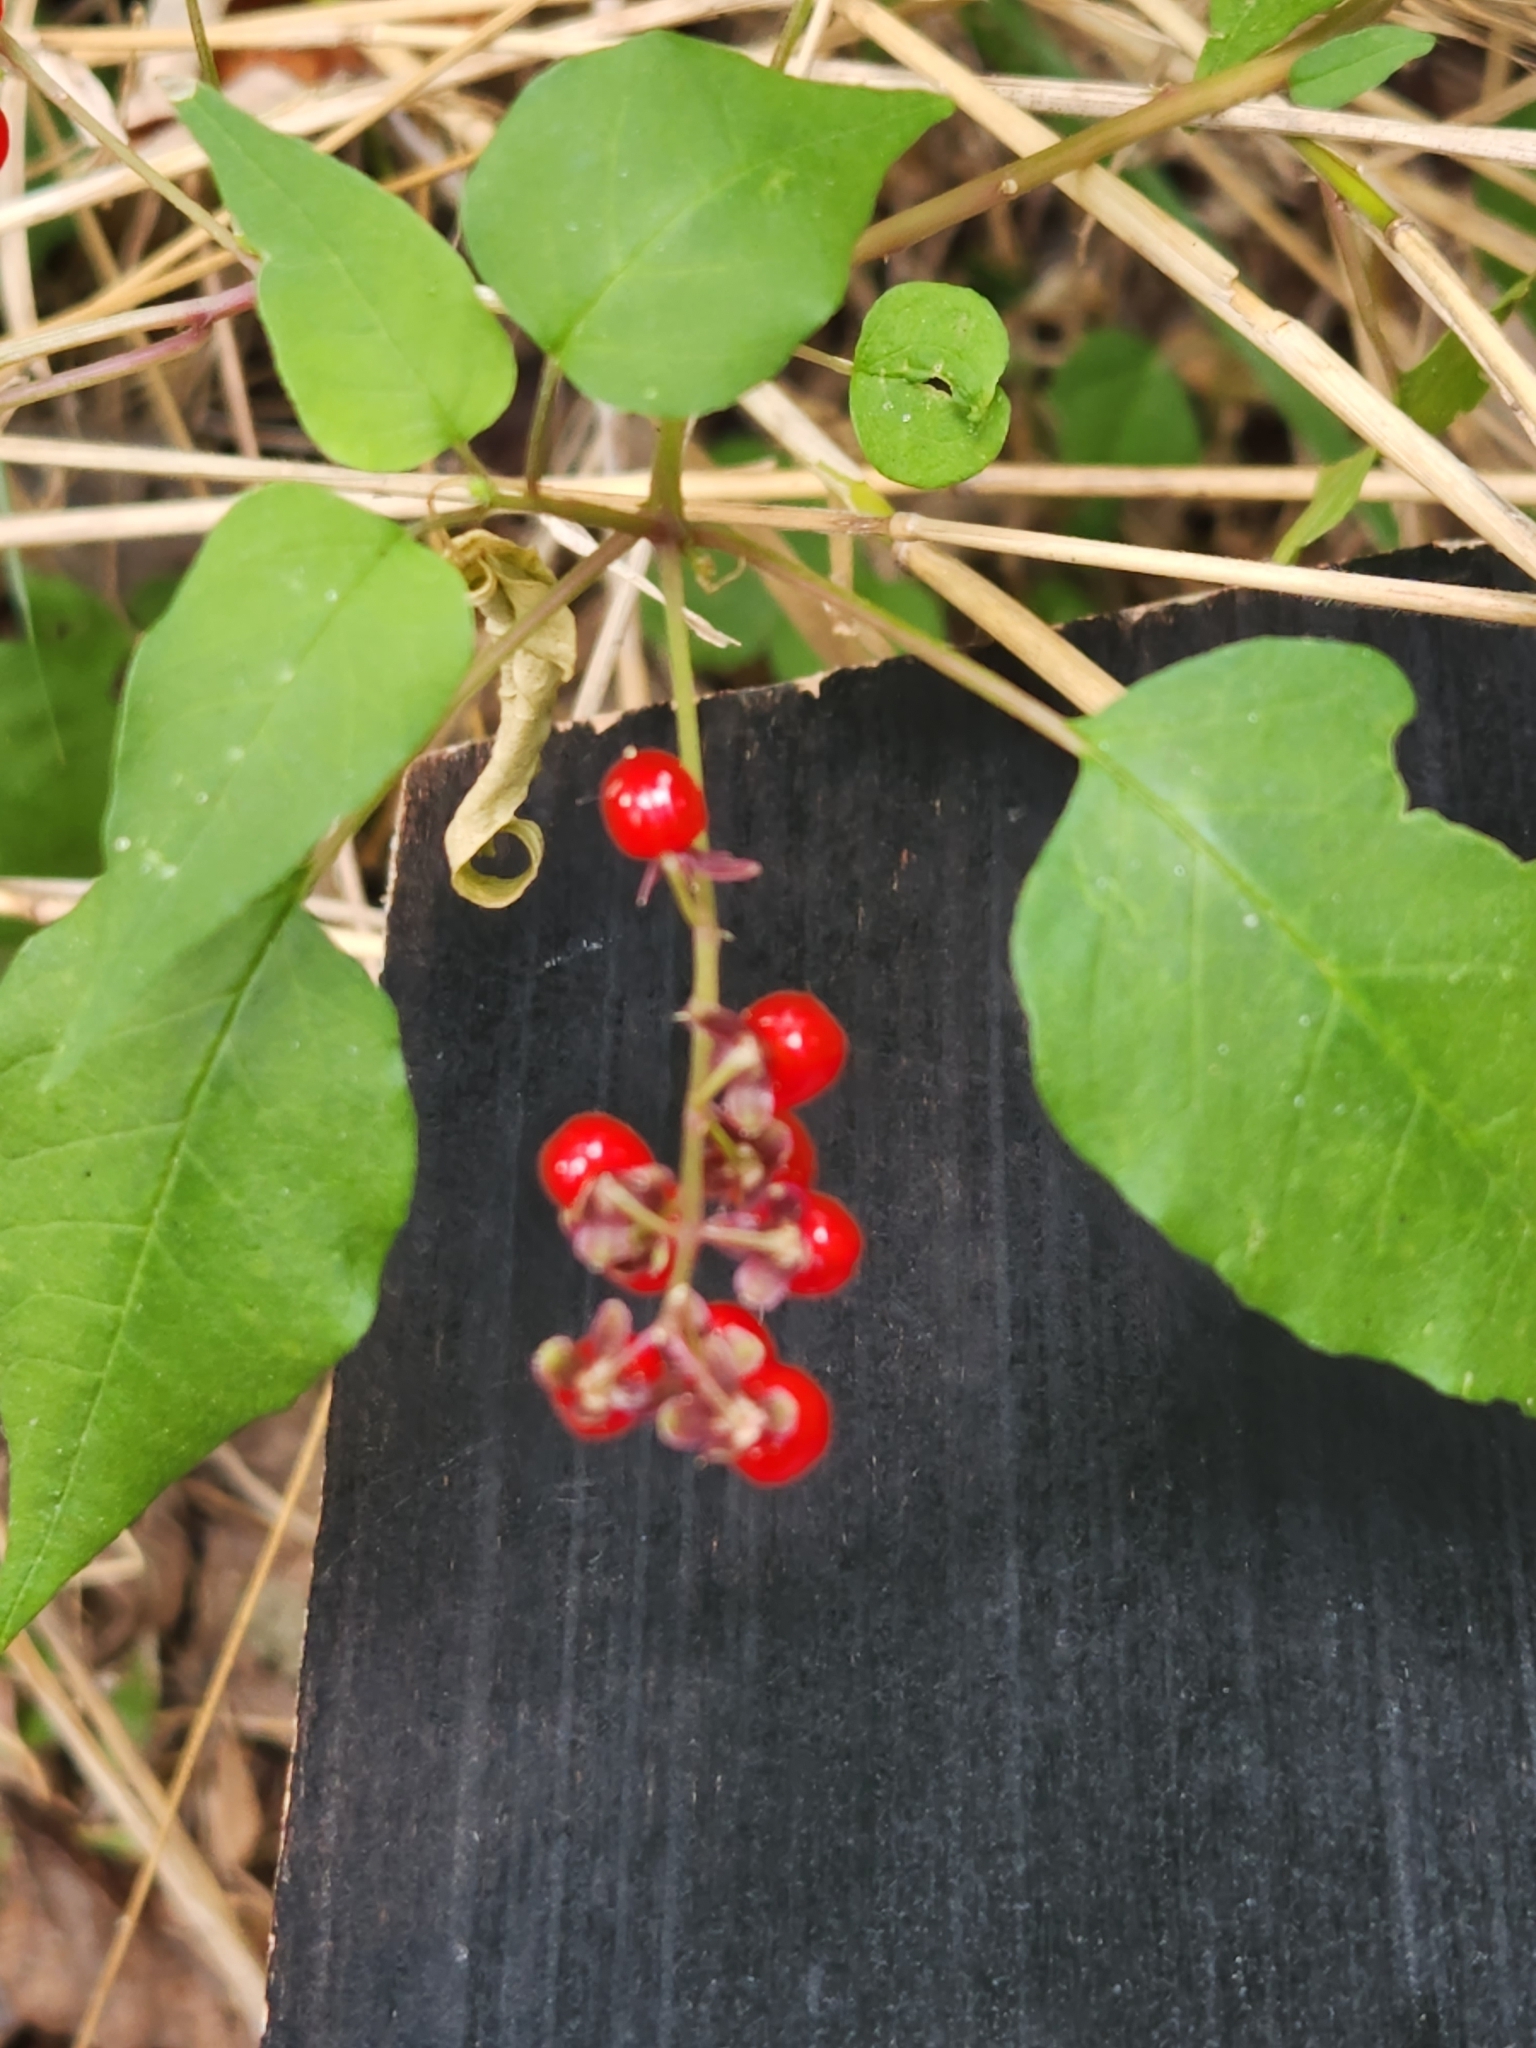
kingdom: Plantae
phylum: Tracheophyta
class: Magnoliopsida
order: Caryophyllales
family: Phytolaccaceae
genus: Rivina
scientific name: Rivina humilis
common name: Rougeplant
